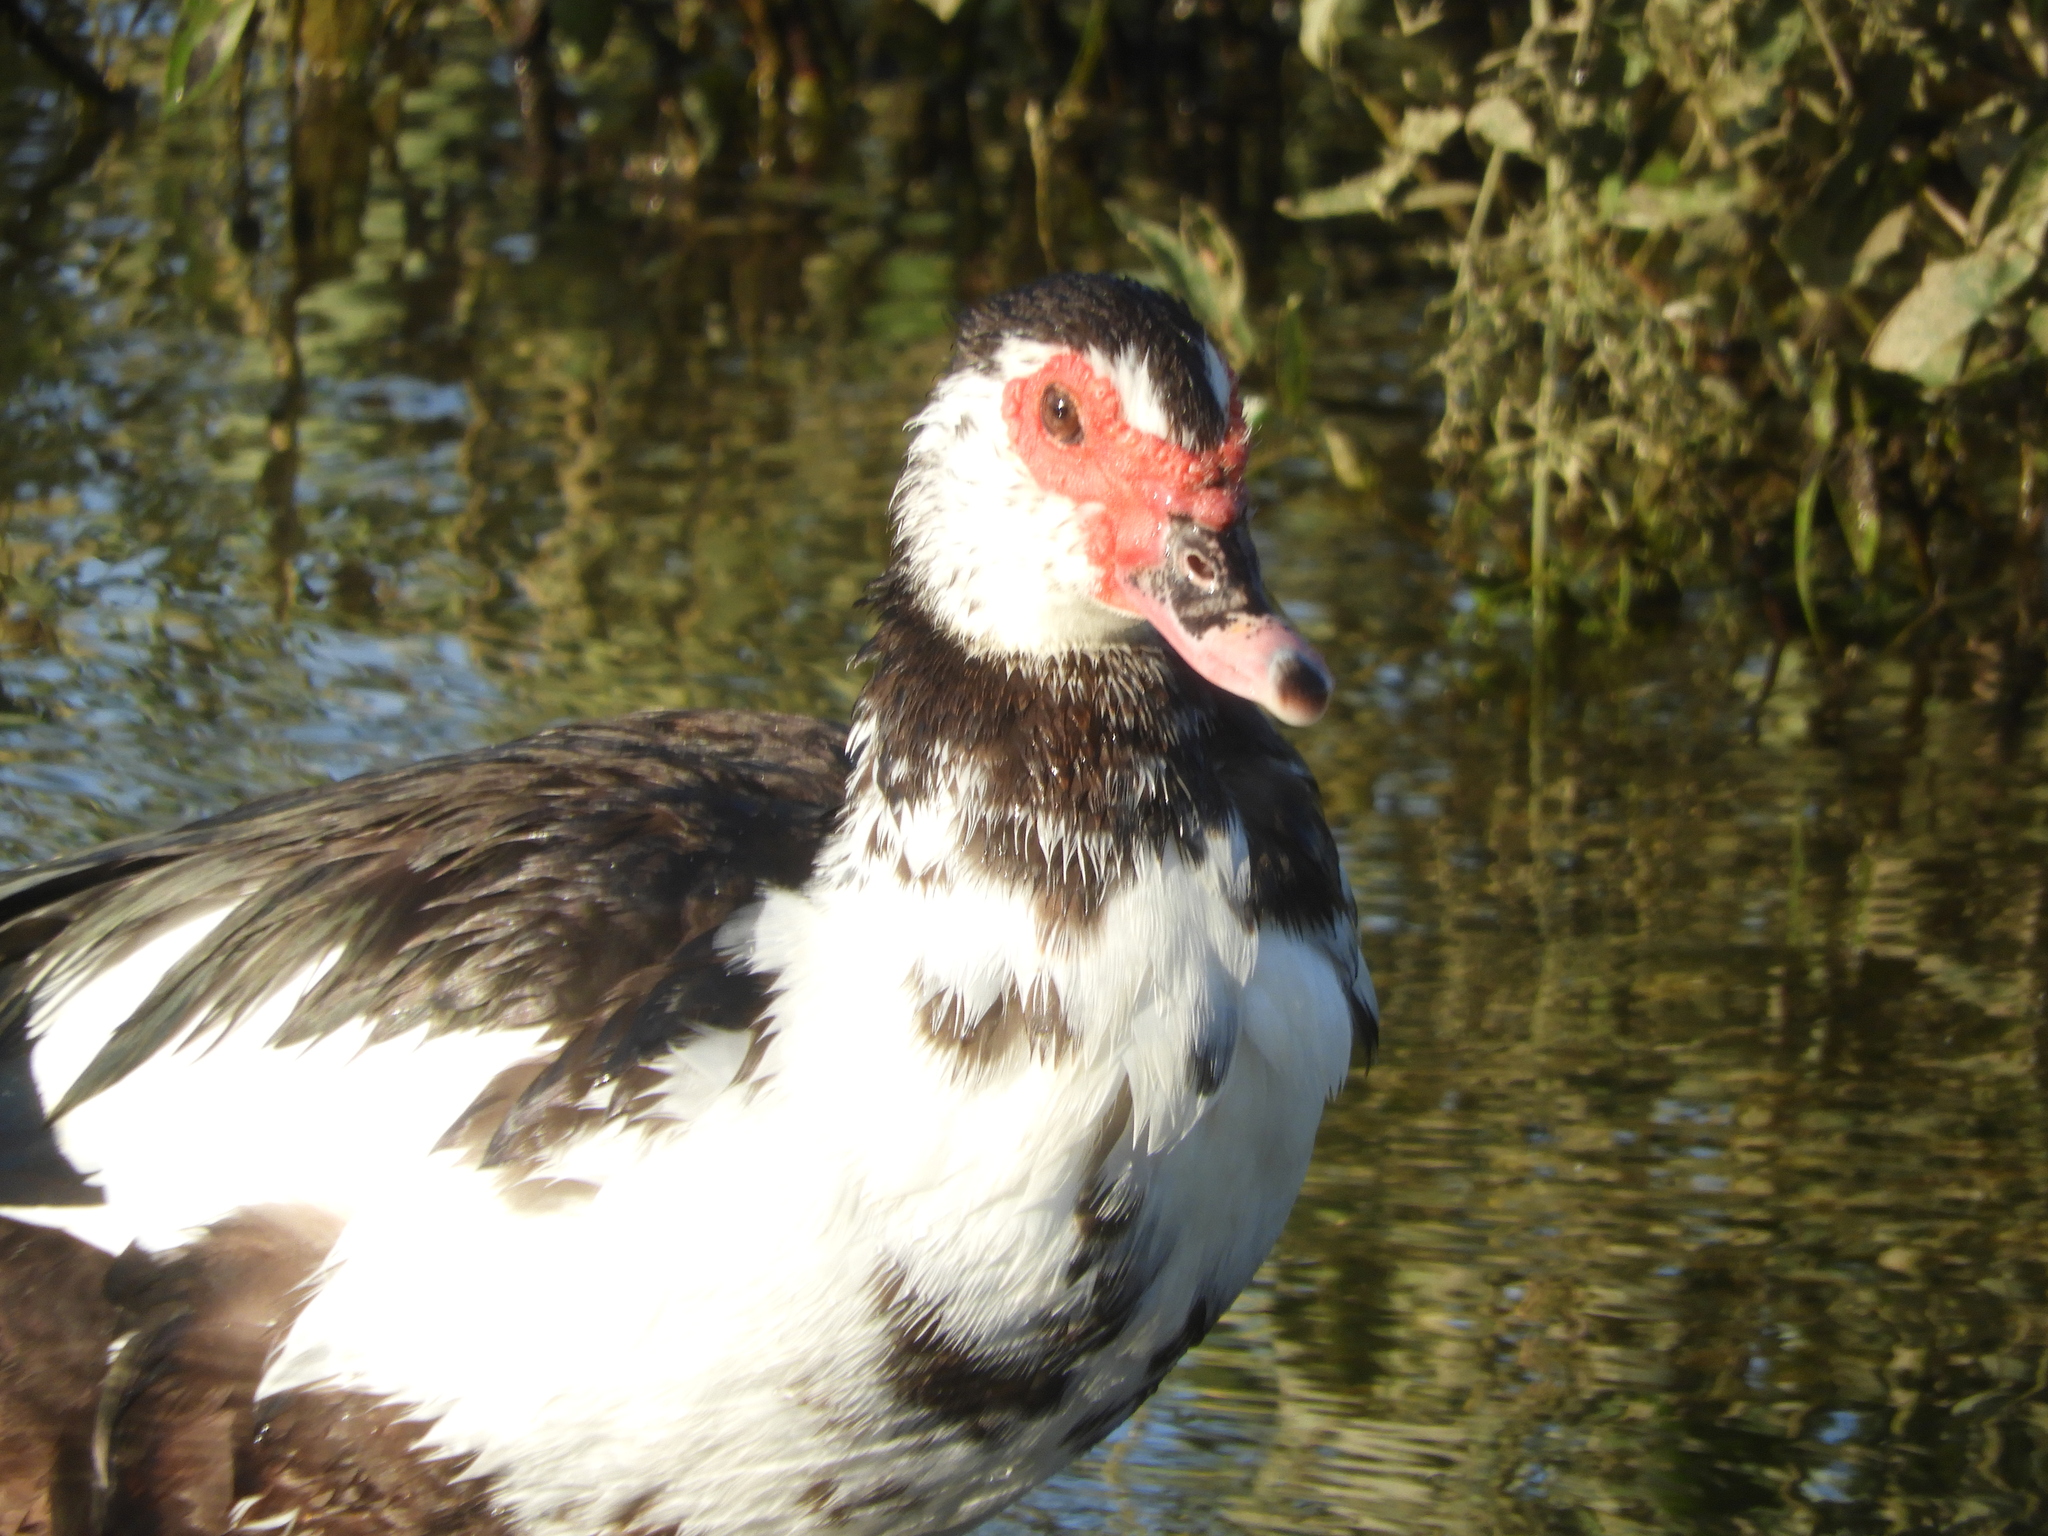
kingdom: Animalia
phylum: Chordata
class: Aves
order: Anseriformes
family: Anatidae
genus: Cairina
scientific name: Cairina moschata
